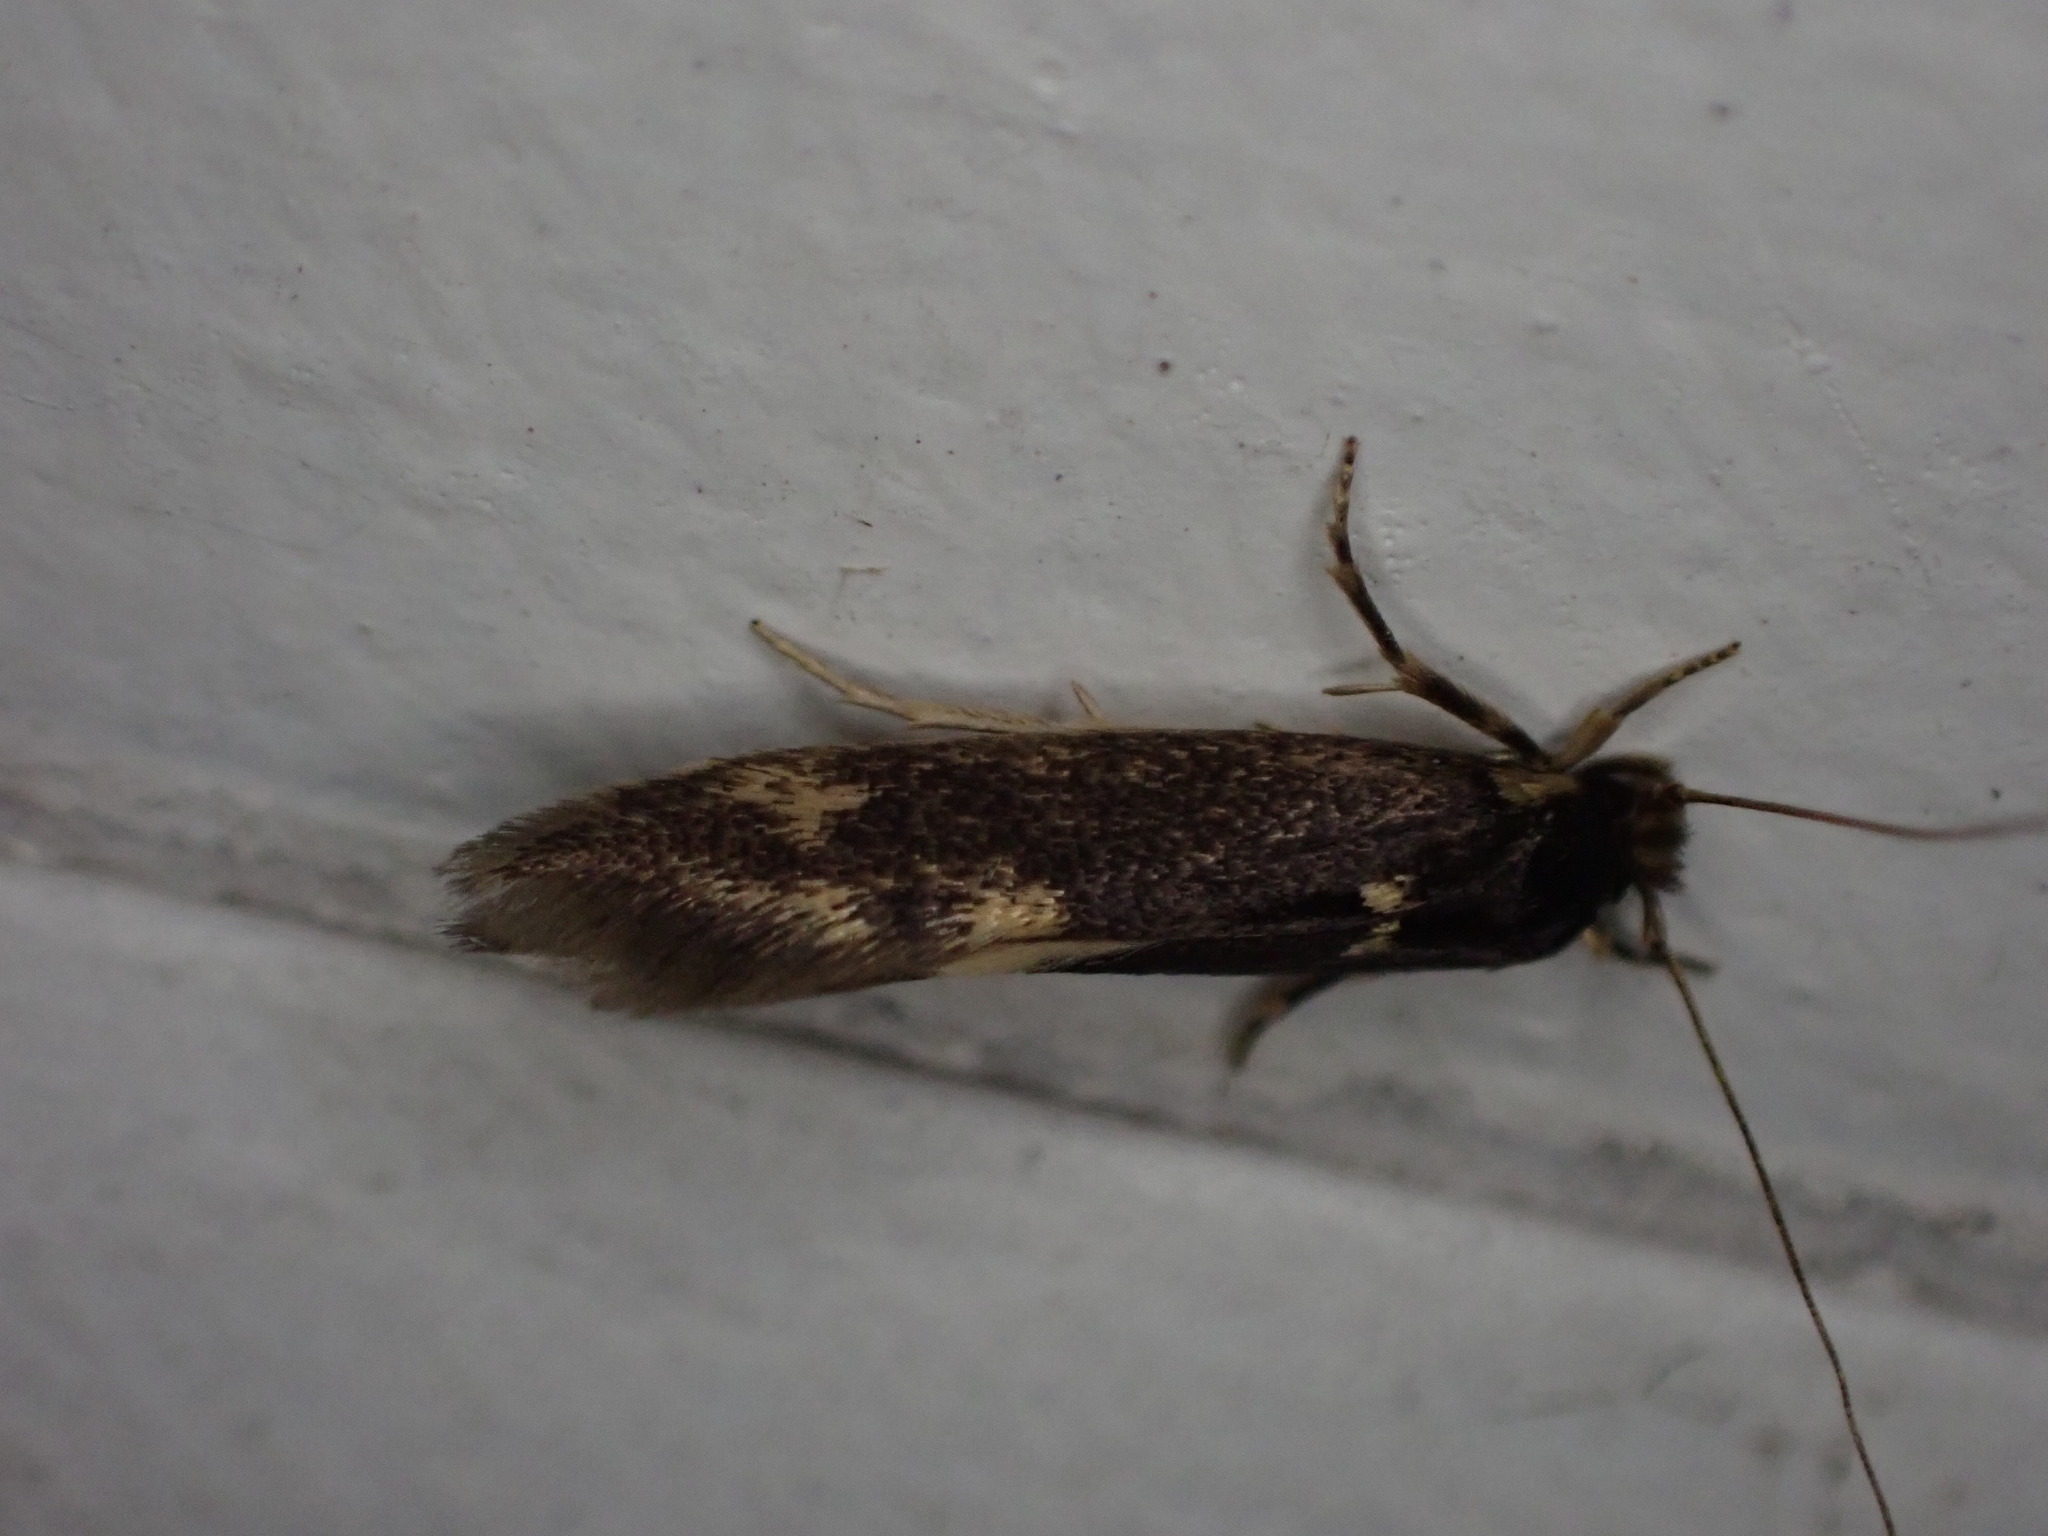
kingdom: Animalia
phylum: Arthropoda
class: Insecta
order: Lepidoptera
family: Tineidae
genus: Opogona
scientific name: Opogona omoscopa
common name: Moth
